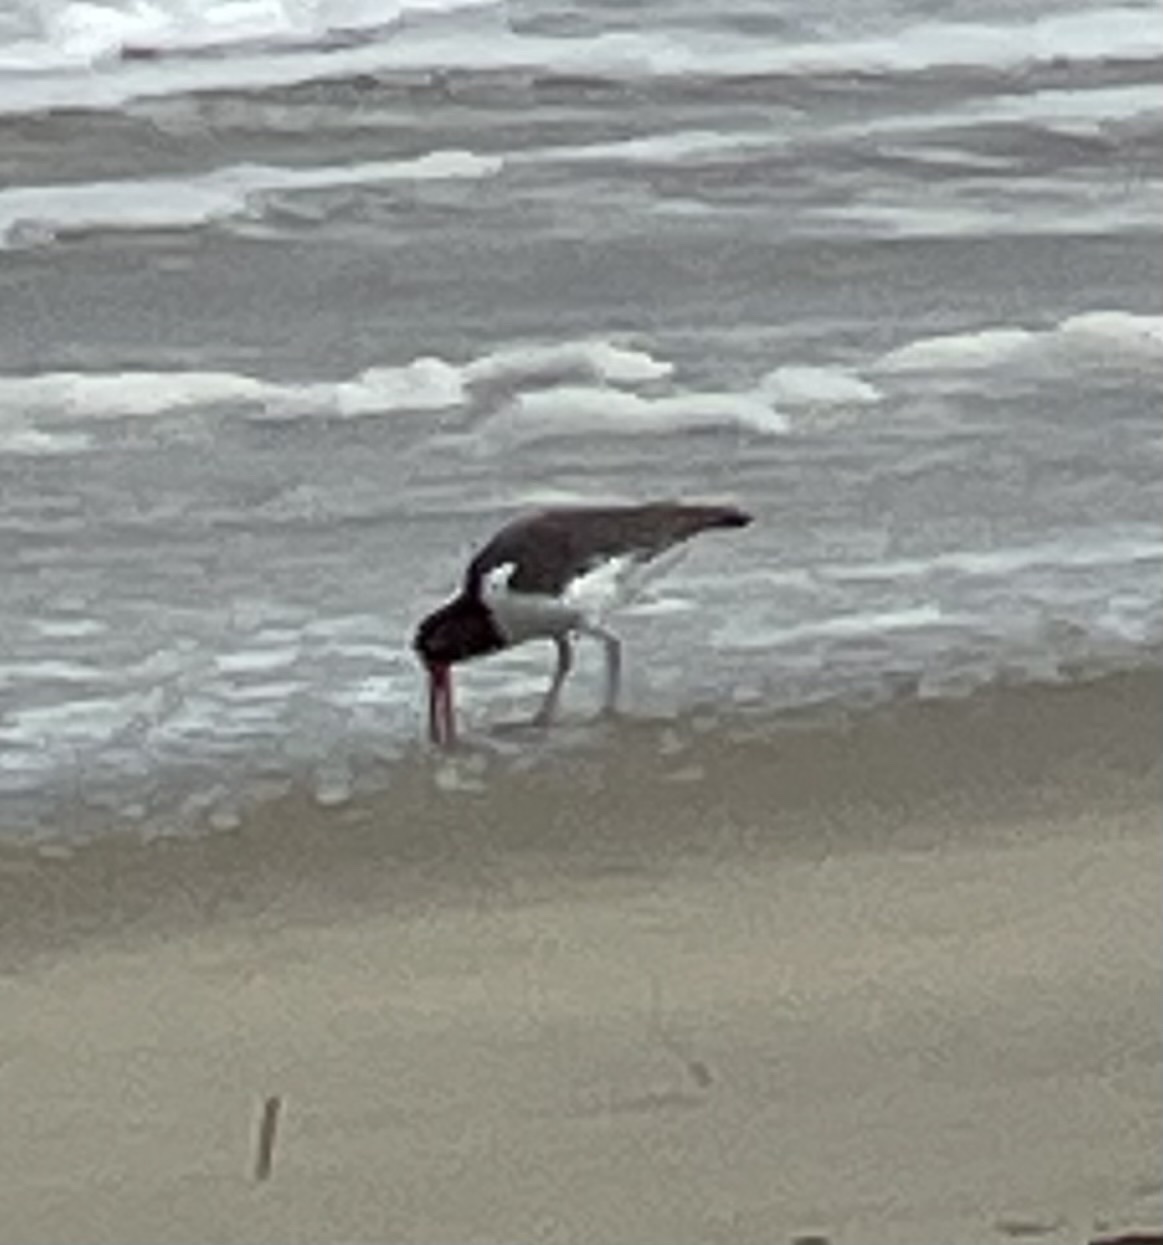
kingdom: Animalia
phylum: Chordata
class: Aves
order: Charadriiformes
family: Haematopodidae
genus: Haematopus
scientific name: Haematopus palliatus
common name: American oystercatcher
